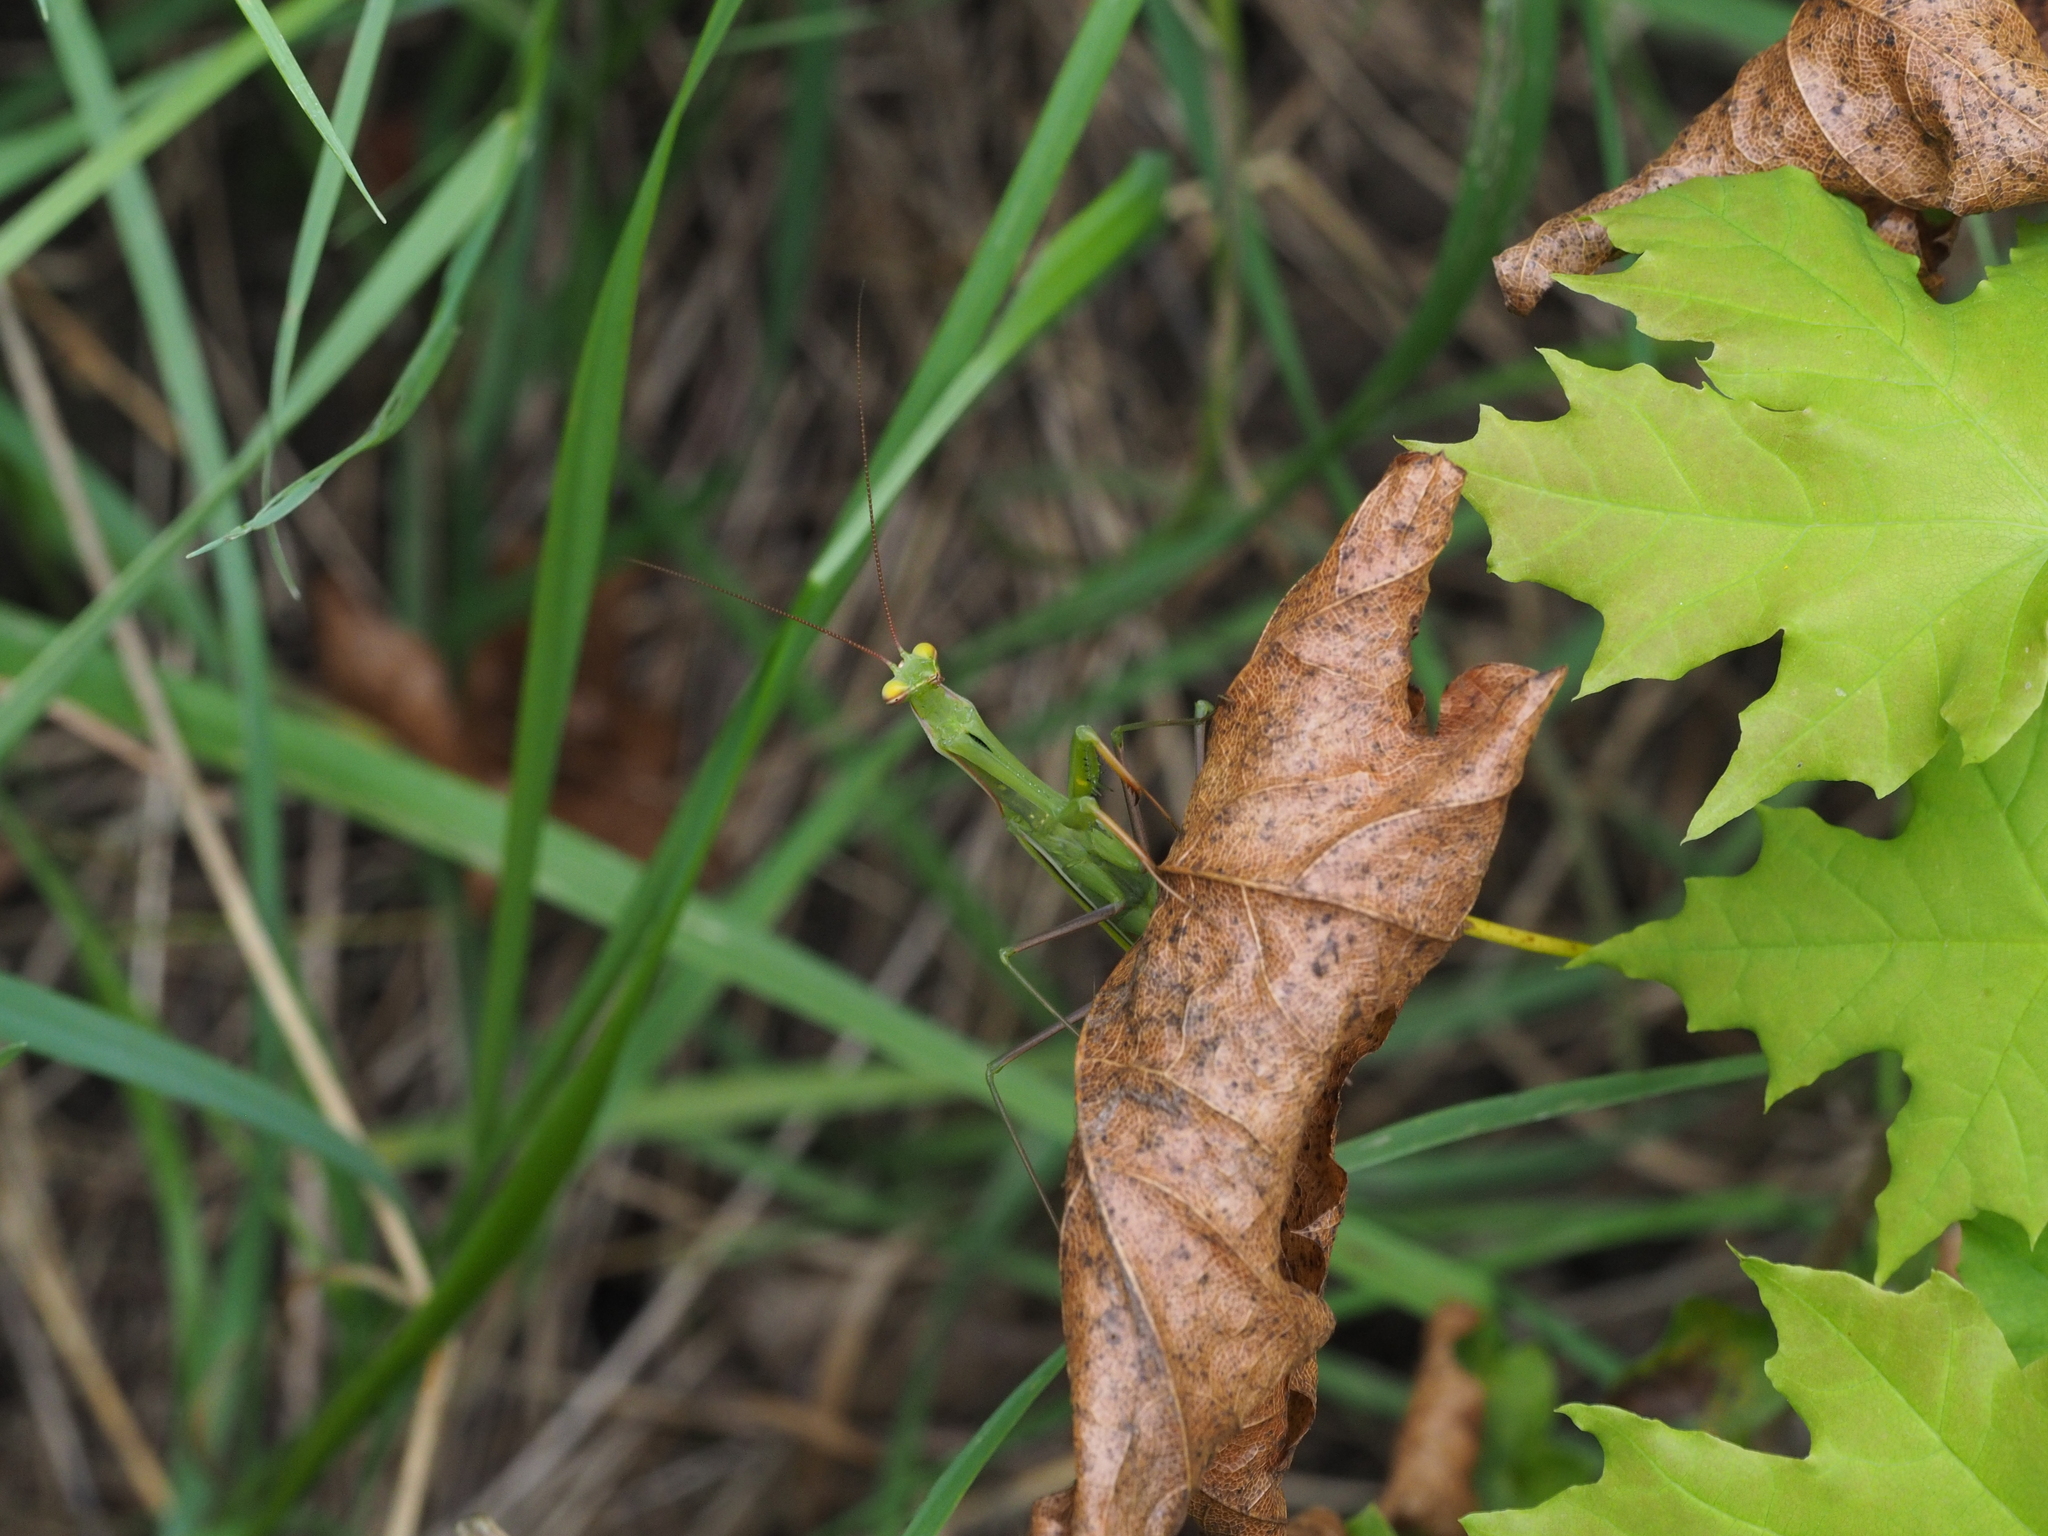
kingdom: Animalia
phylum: Arthropoda
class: Insecta
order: Mantodea
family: Mantidae
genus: Mantis
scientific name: Mantis religiosa
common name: Praying mantis
